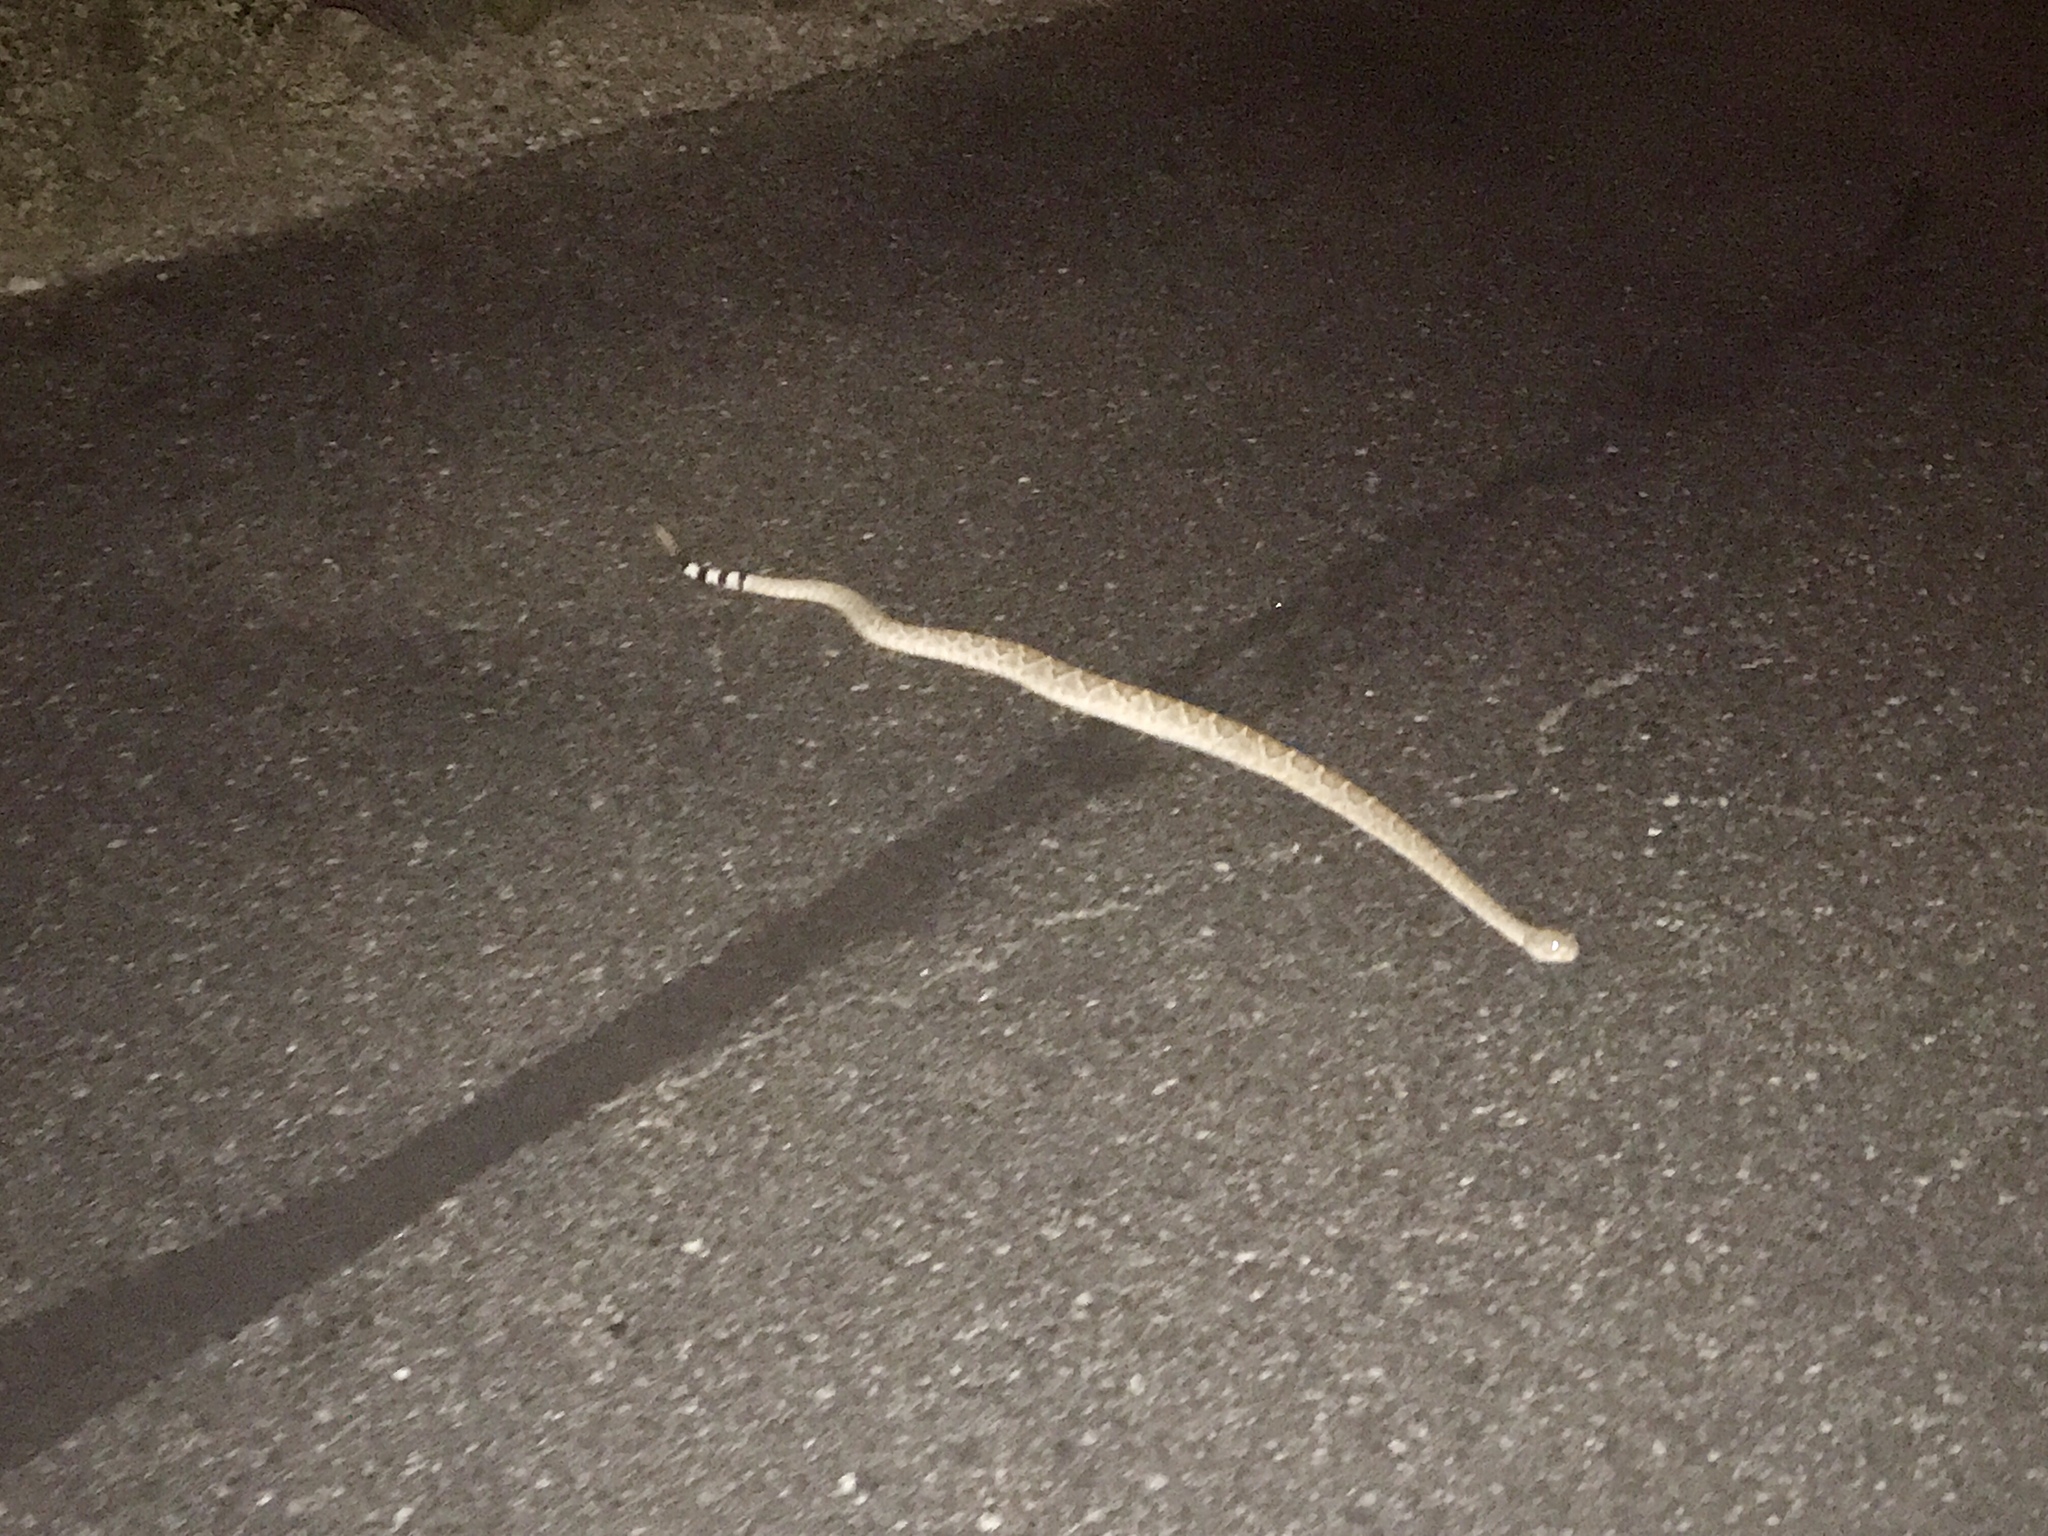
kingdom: Animalia
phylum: Chordata
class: Squamata
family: Viperidae
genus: Crotalus
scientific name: Crotalus atrox
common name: Western diamond-backed rattlesnake
